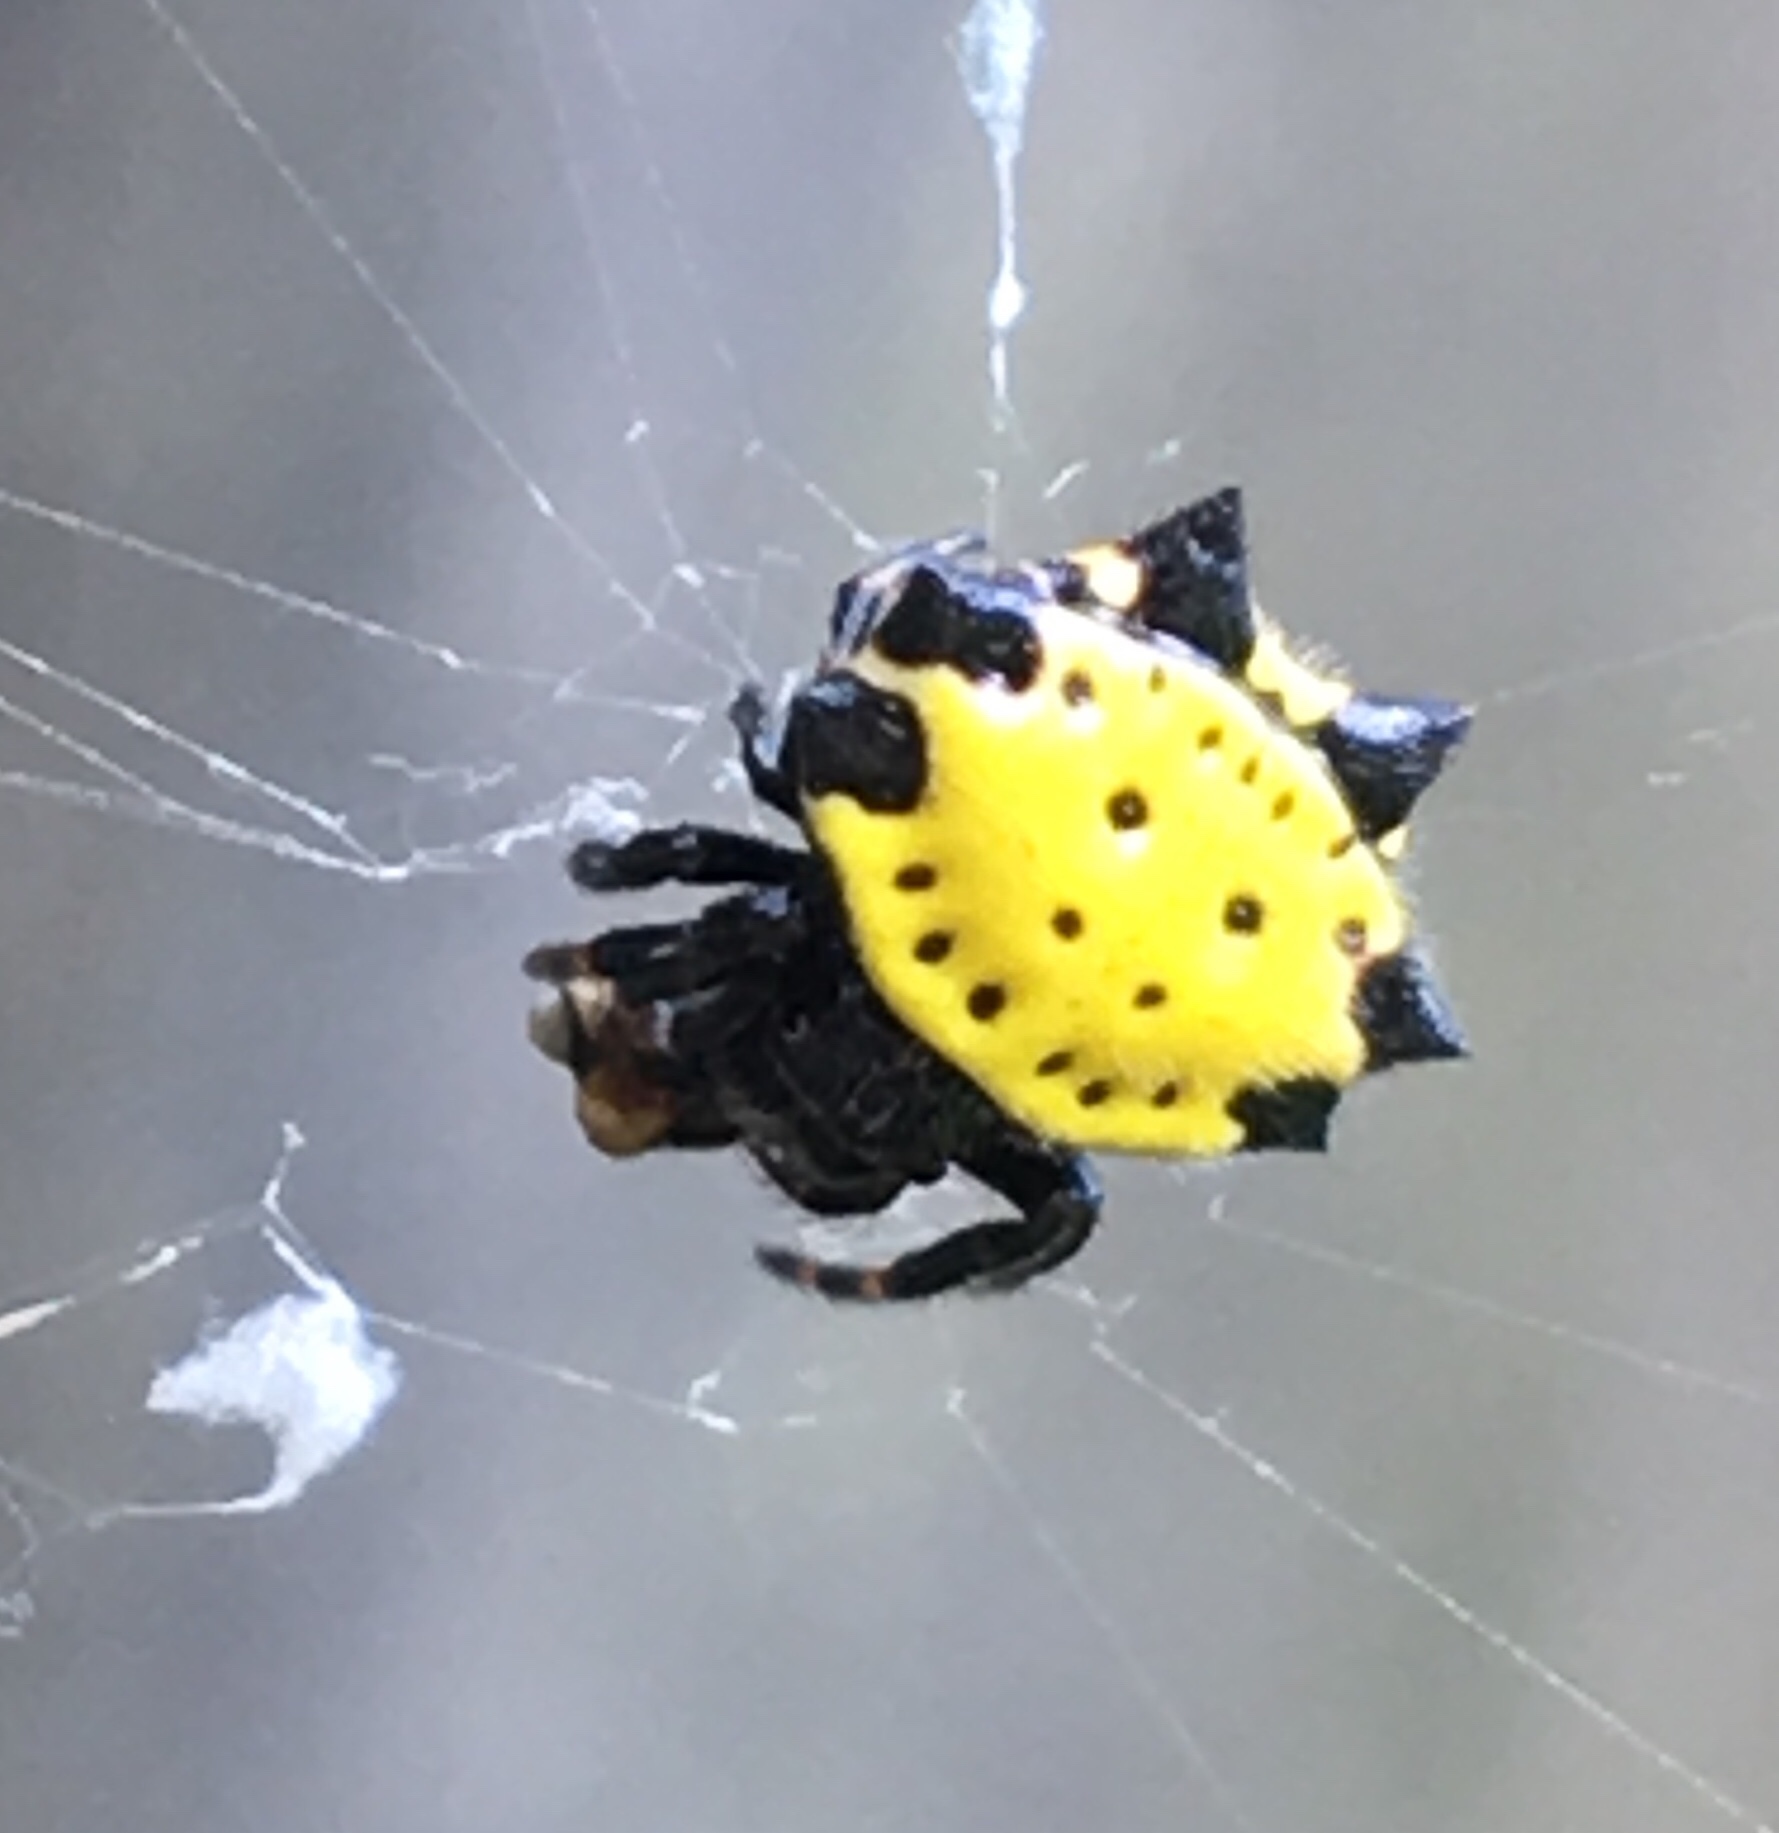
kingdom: Animalia
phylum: Arthropoda
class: Arachnida
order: Araneae
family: Araneidae
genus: Gasteracantha
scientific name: Gasteracantha cancriformis
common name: Orb weavers
